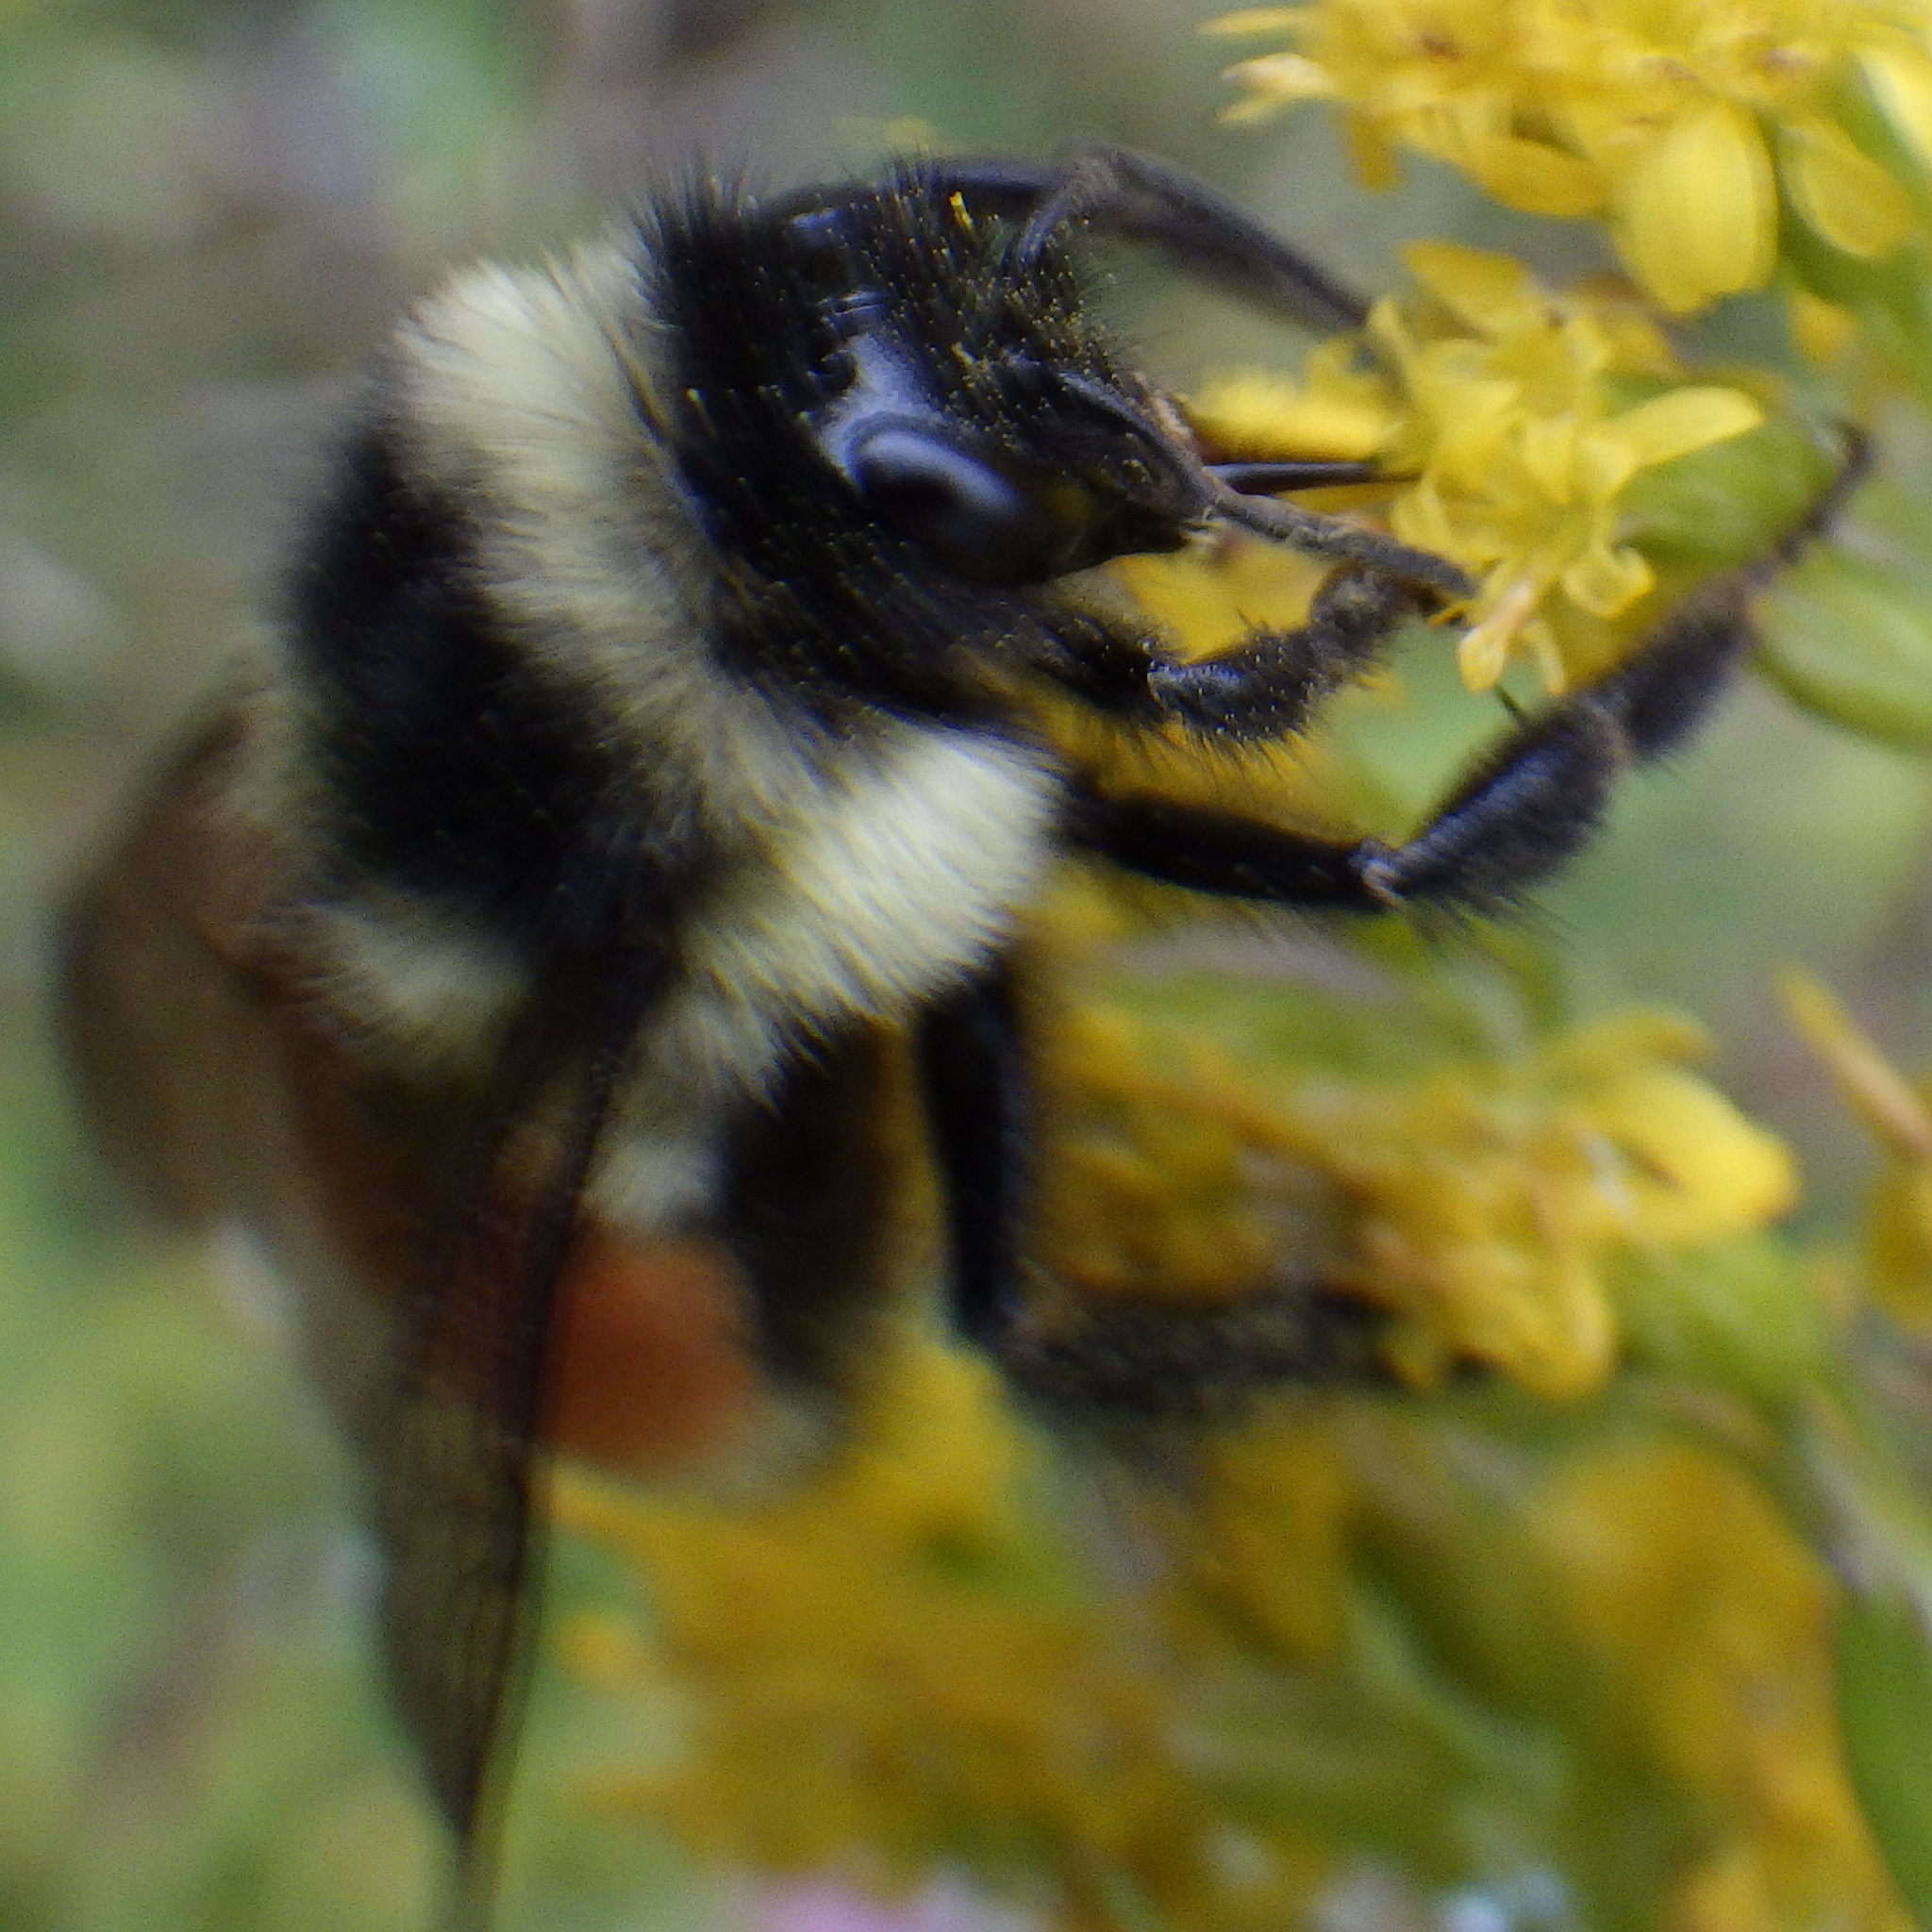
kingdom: Animalia
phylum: Arthropoda
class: Insecta
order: Hymenoptera
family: Apidae
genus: Bombus
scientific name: Bombus ternarius
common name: Tri-colored bumble bee
